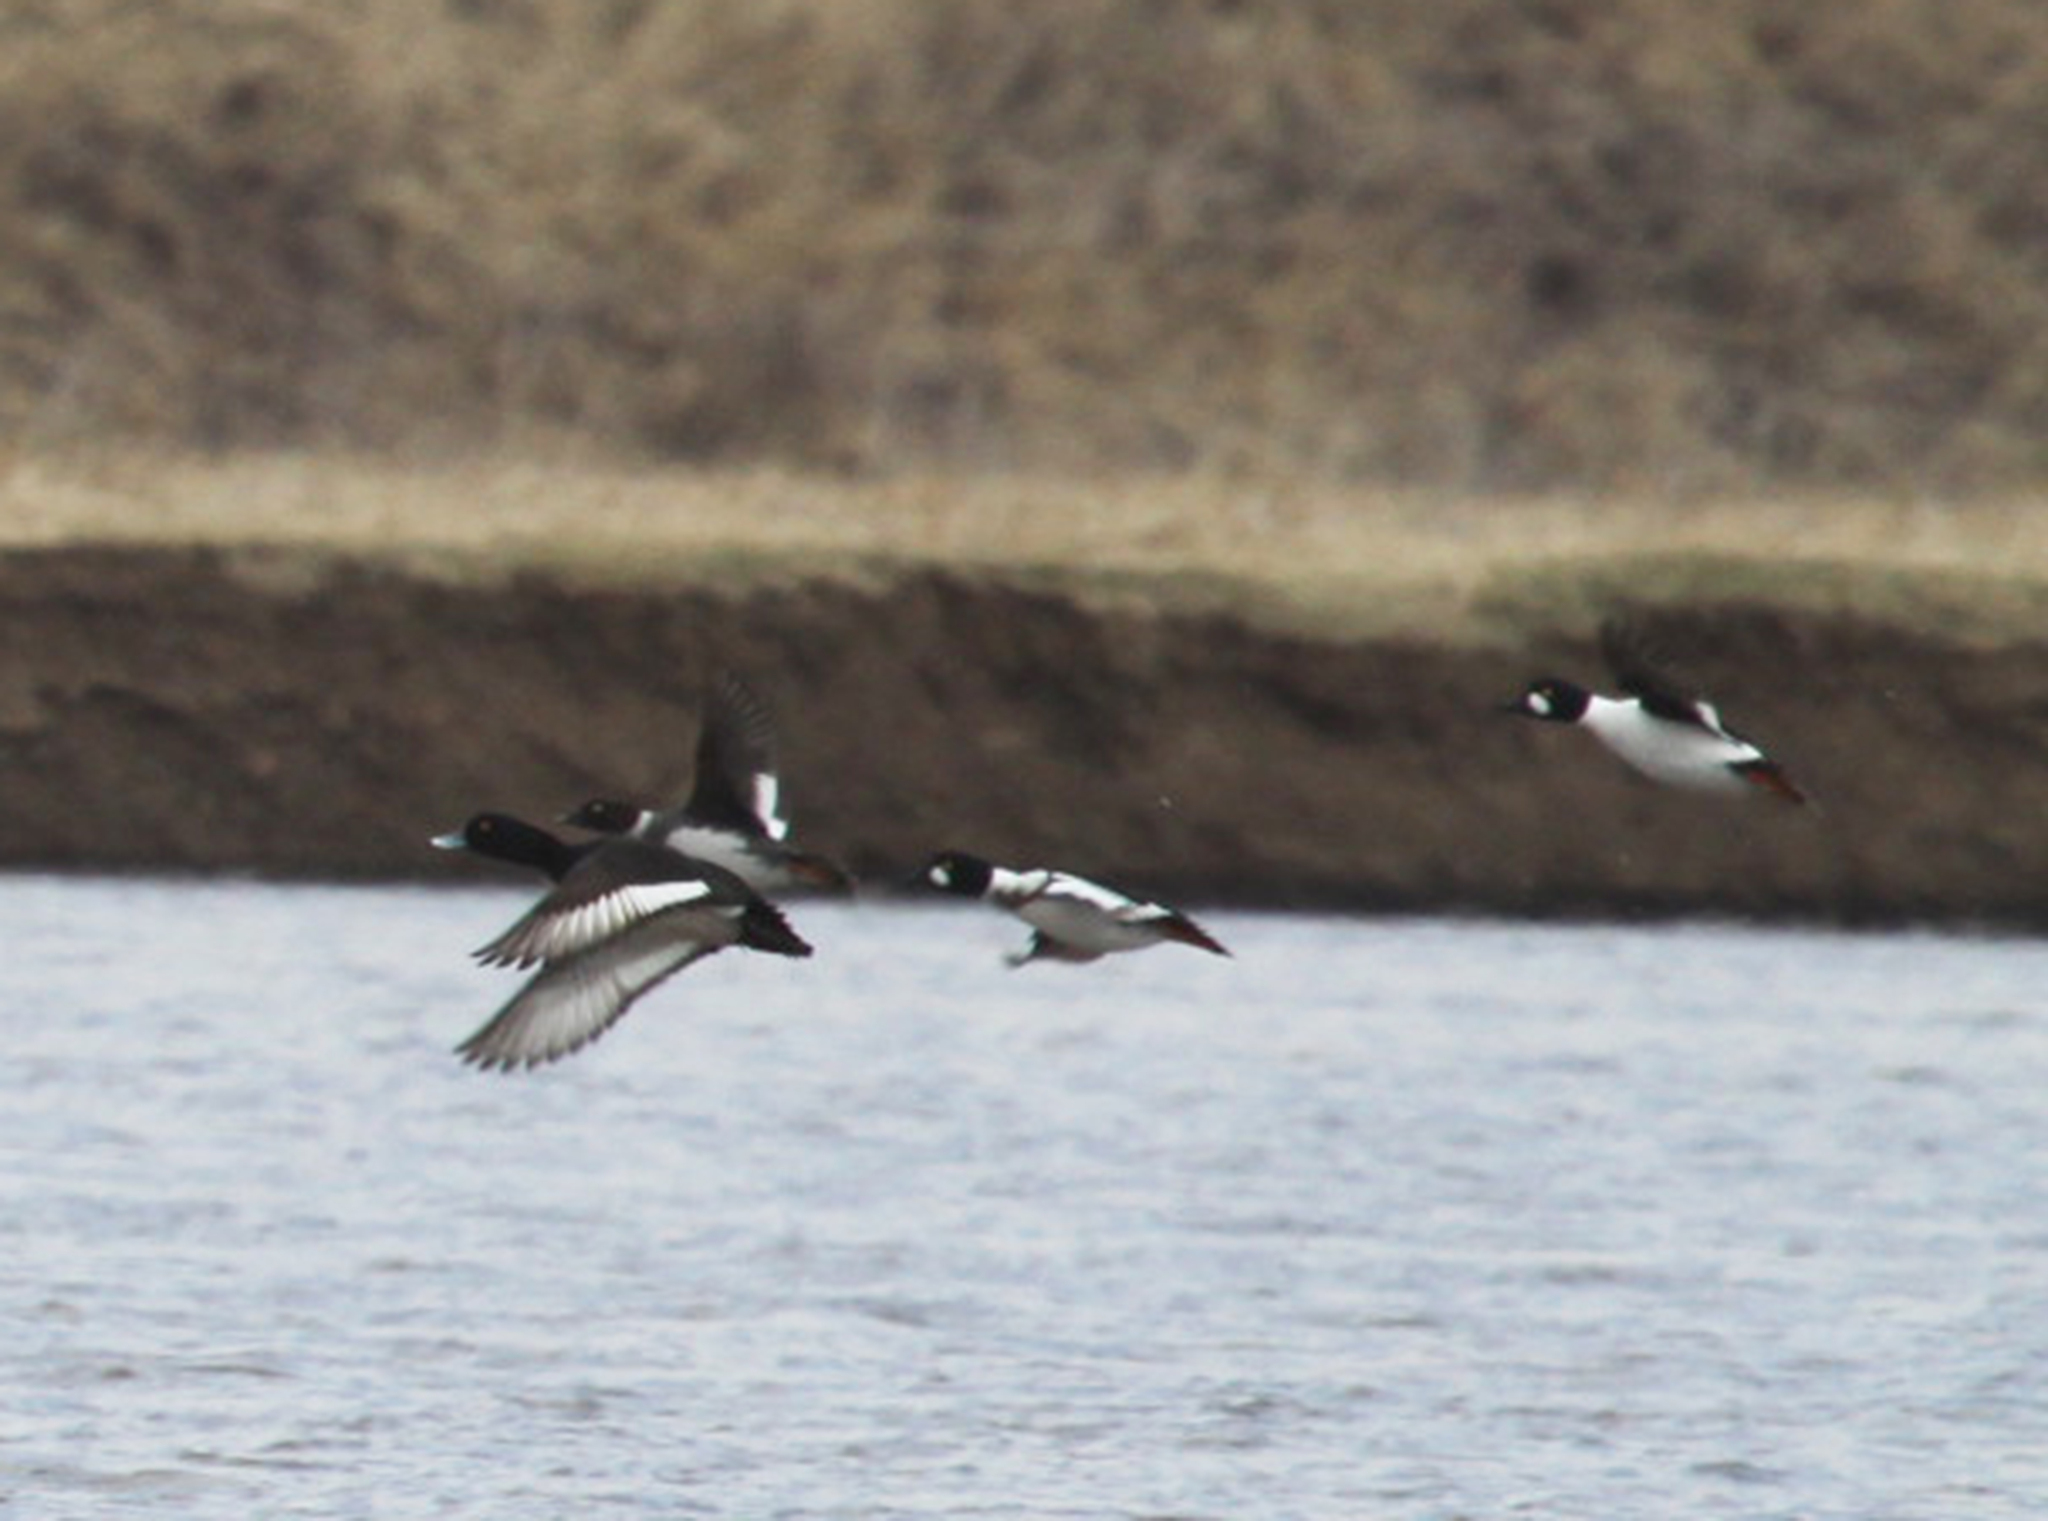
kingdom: Animalia
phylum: Chordata
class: Aves
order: Anseriformes
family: Anatidae
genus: Bucephala
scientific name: Bucephala clangula
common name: Common goldeneye
